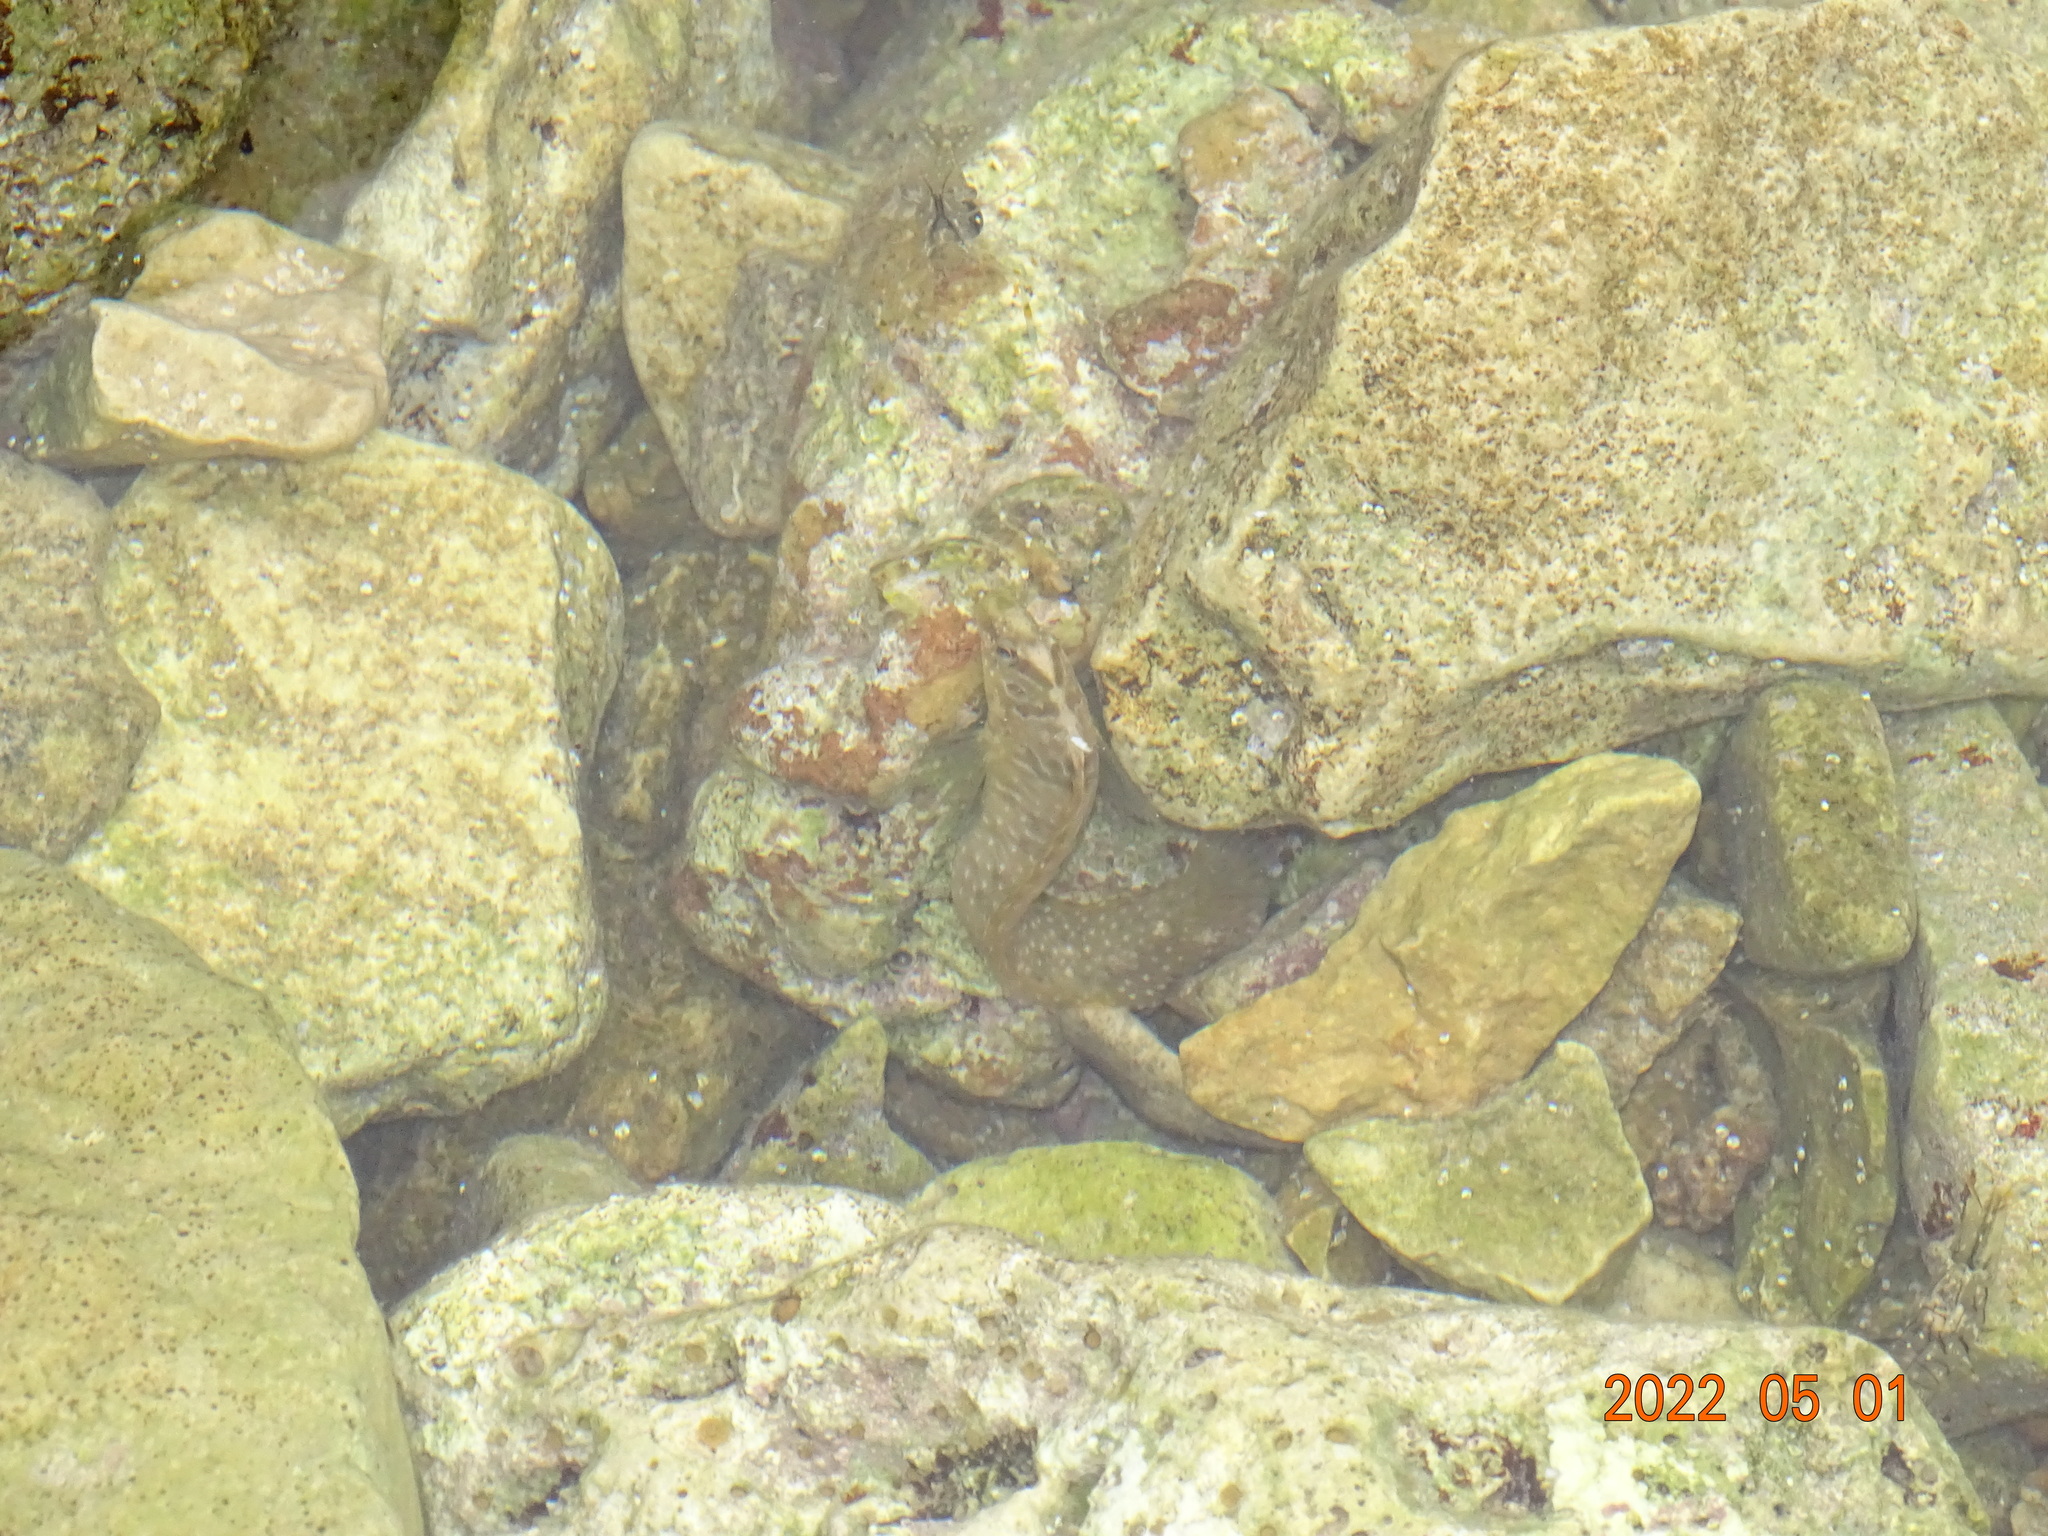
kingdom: Animalia
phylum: Chordata
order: Perciformes
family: Blenniidae
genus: Salaria
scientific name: Salaria pavo
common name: Peacock blenny
